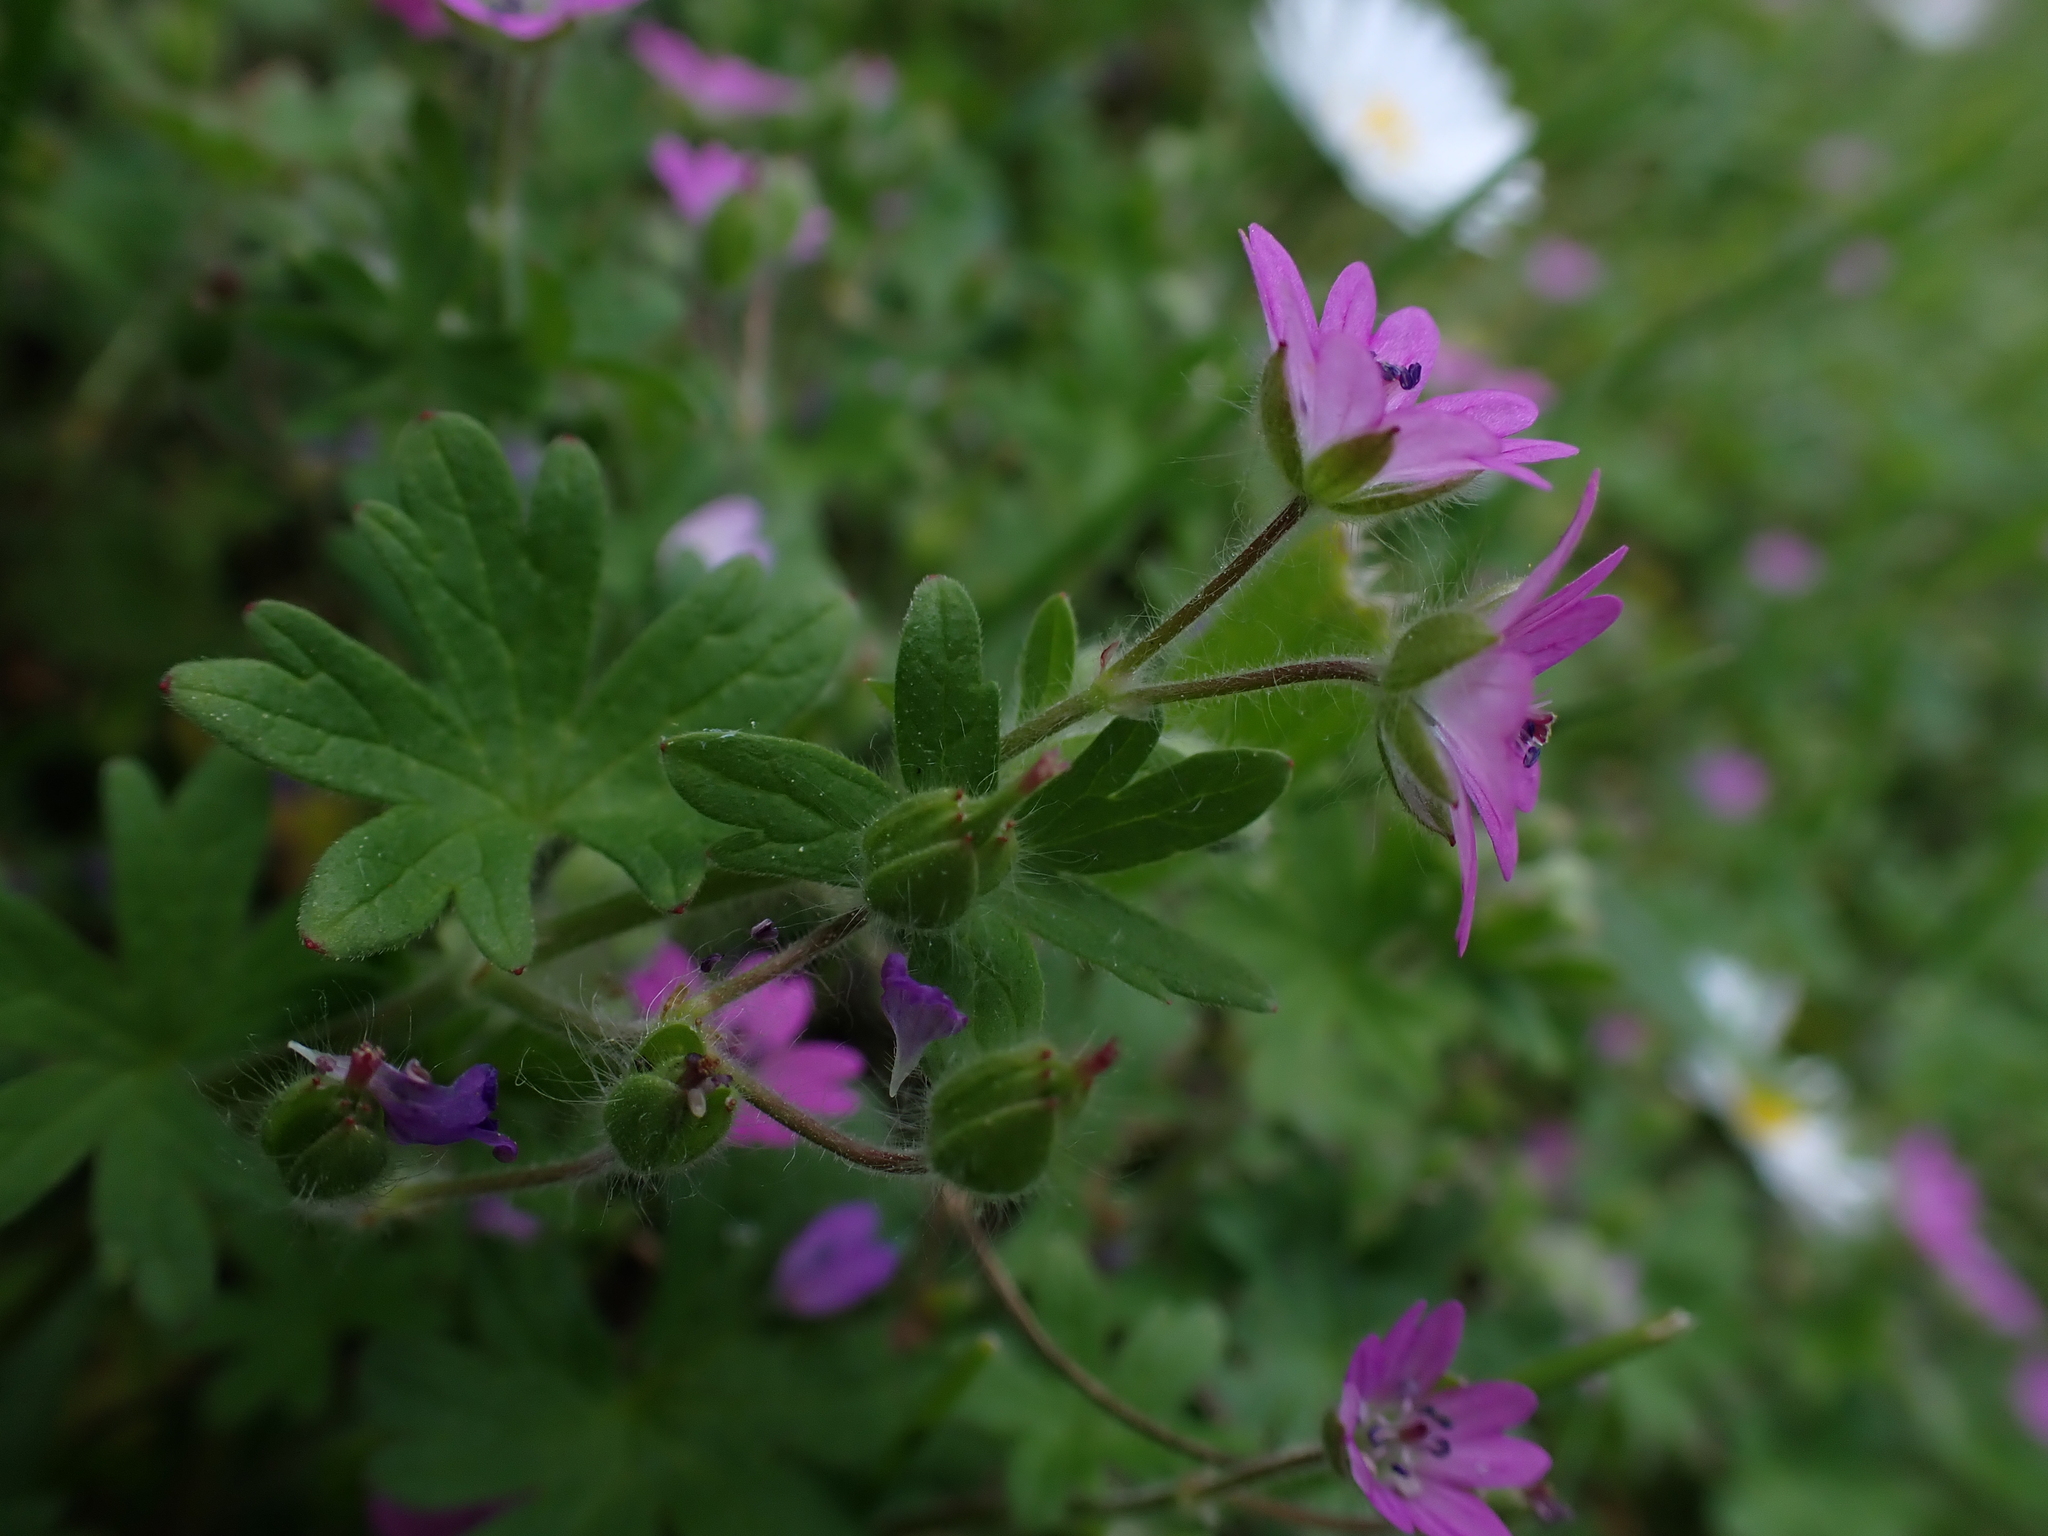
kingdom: Plantae
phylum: Tracheophyta
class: Magnoliopsida
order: Geraniales
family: Geraniaceae
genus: Geranium
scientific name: Geranium molle
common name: Dove's-foot crane's-bill
